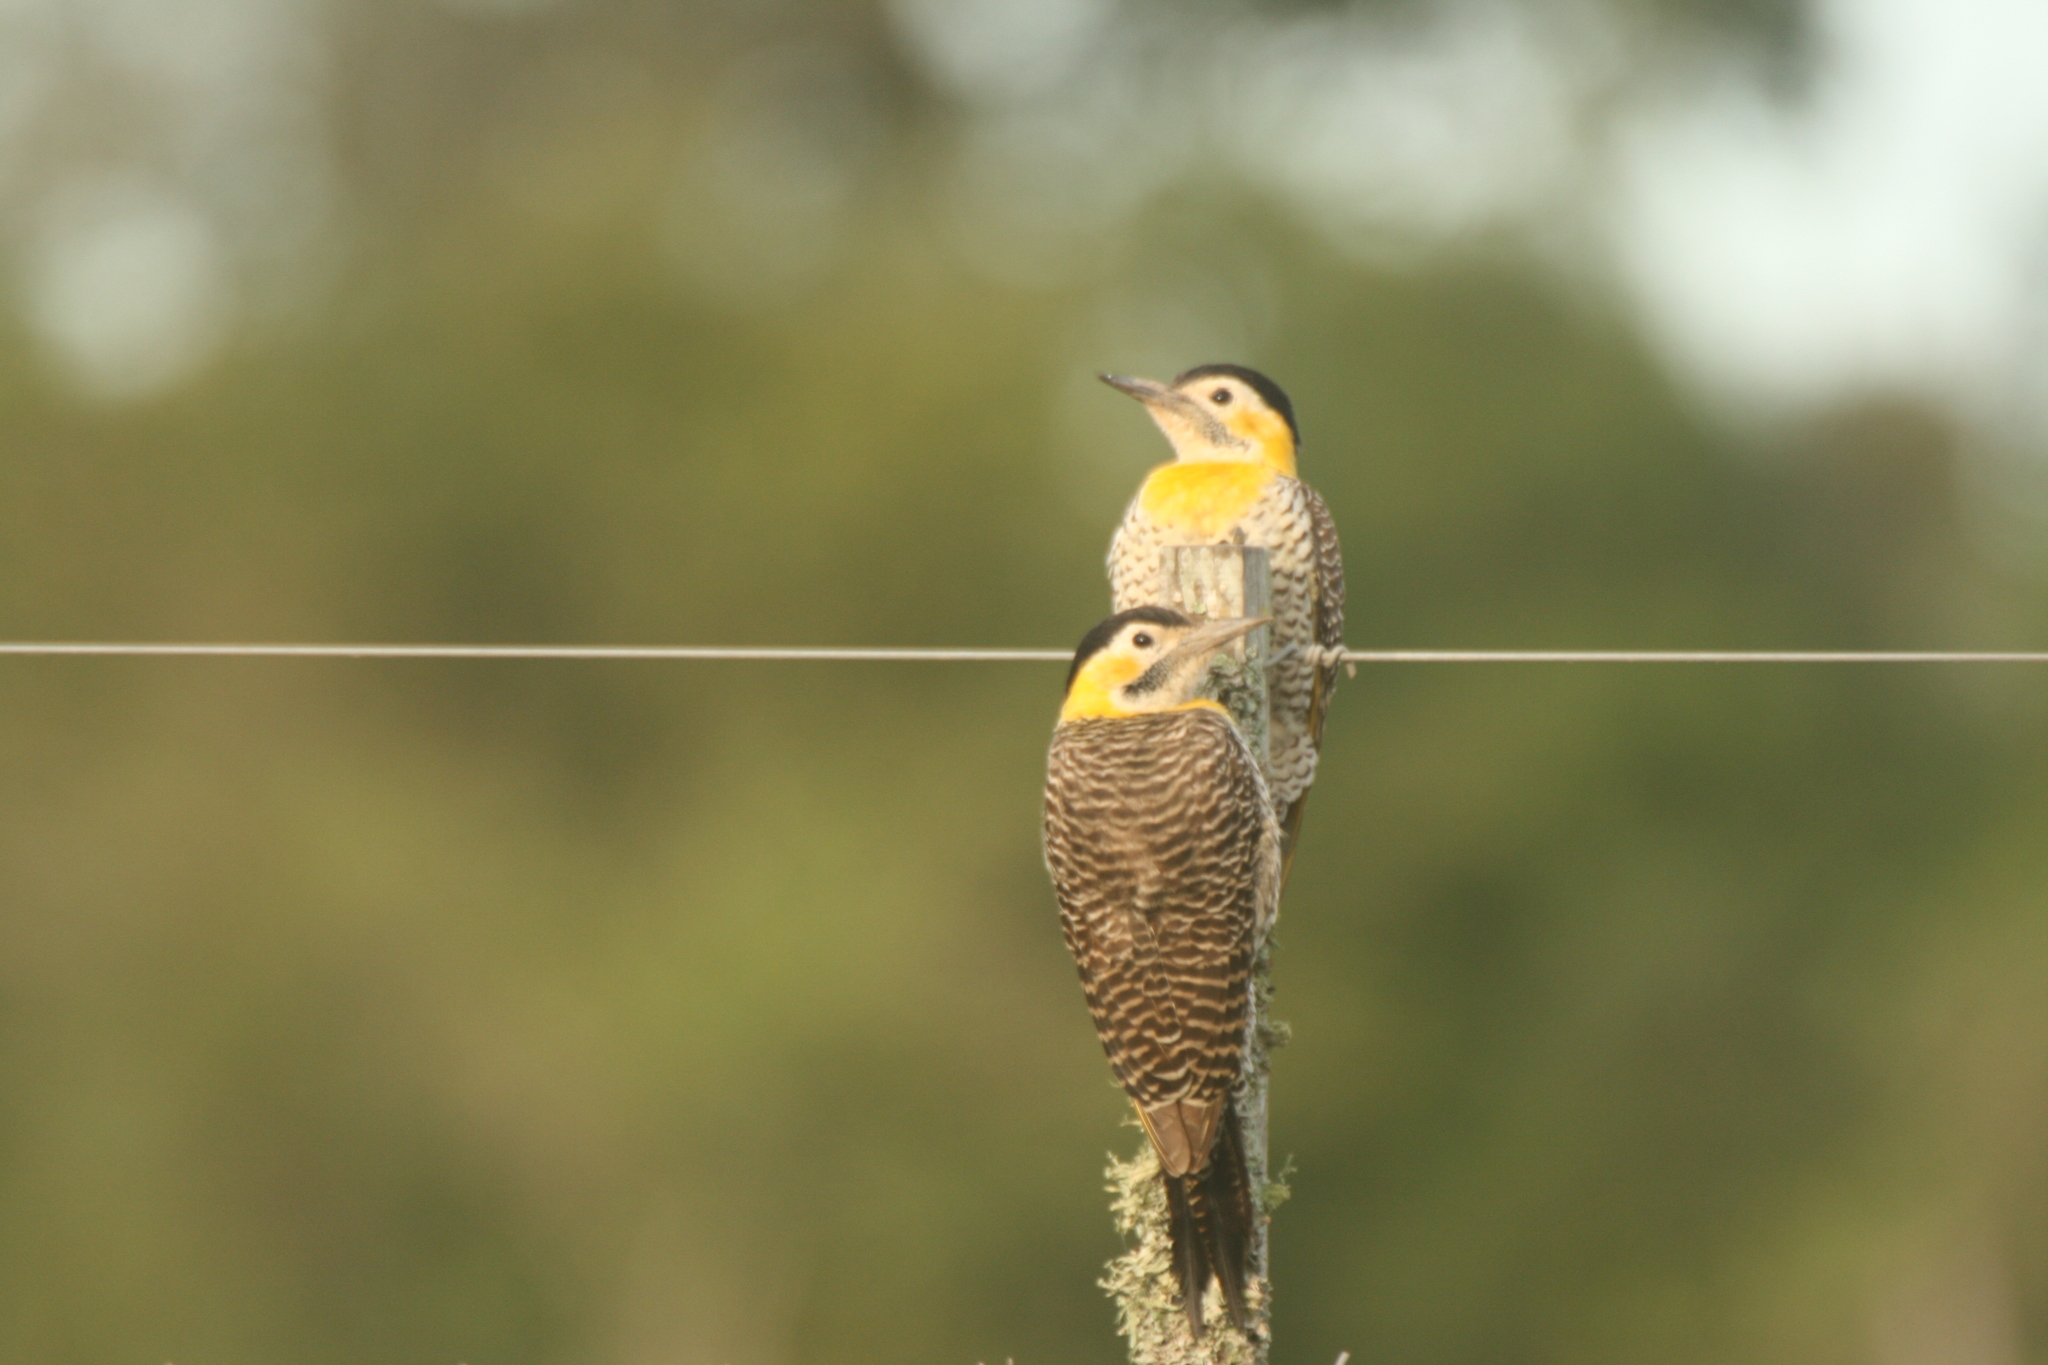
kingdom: Animalia
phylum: Chordata
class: Aves
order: Piciformes
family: Picidae
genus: Colaptes
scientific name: Colaptes campestris
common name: Campo flicker
